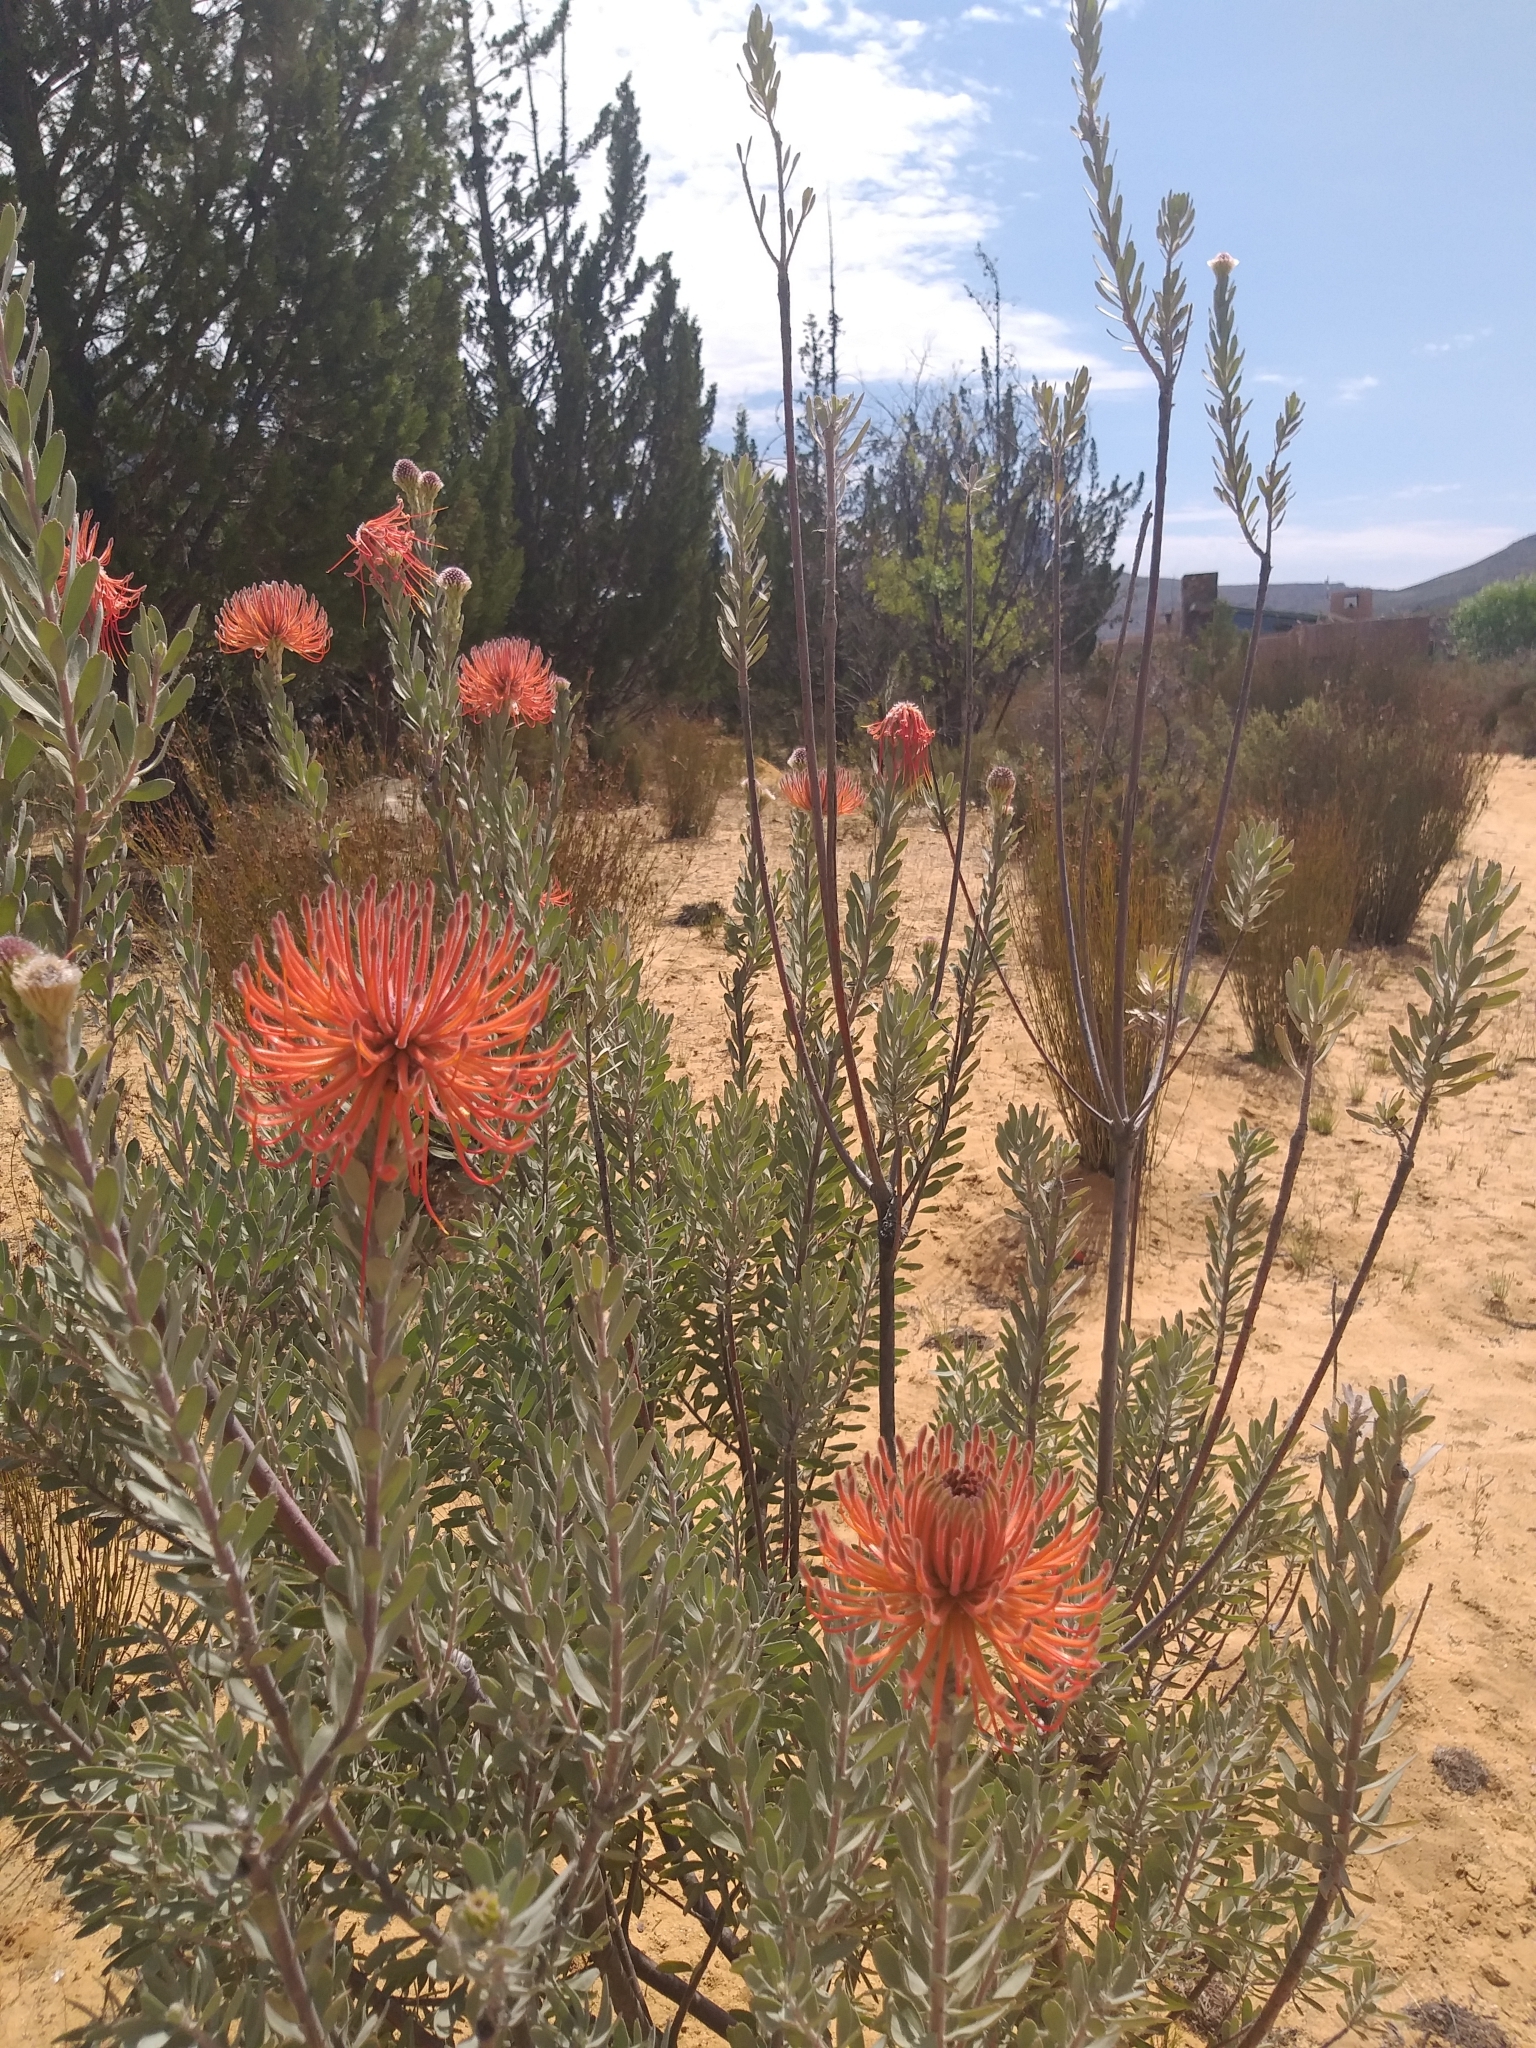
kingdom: Plantae
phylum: Tracheophyta
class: Magnoliopsida
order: Proteales
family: Proteaceae
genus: Leucospermum
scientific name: Leucospermum reflexum
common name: Rocket pincushion
